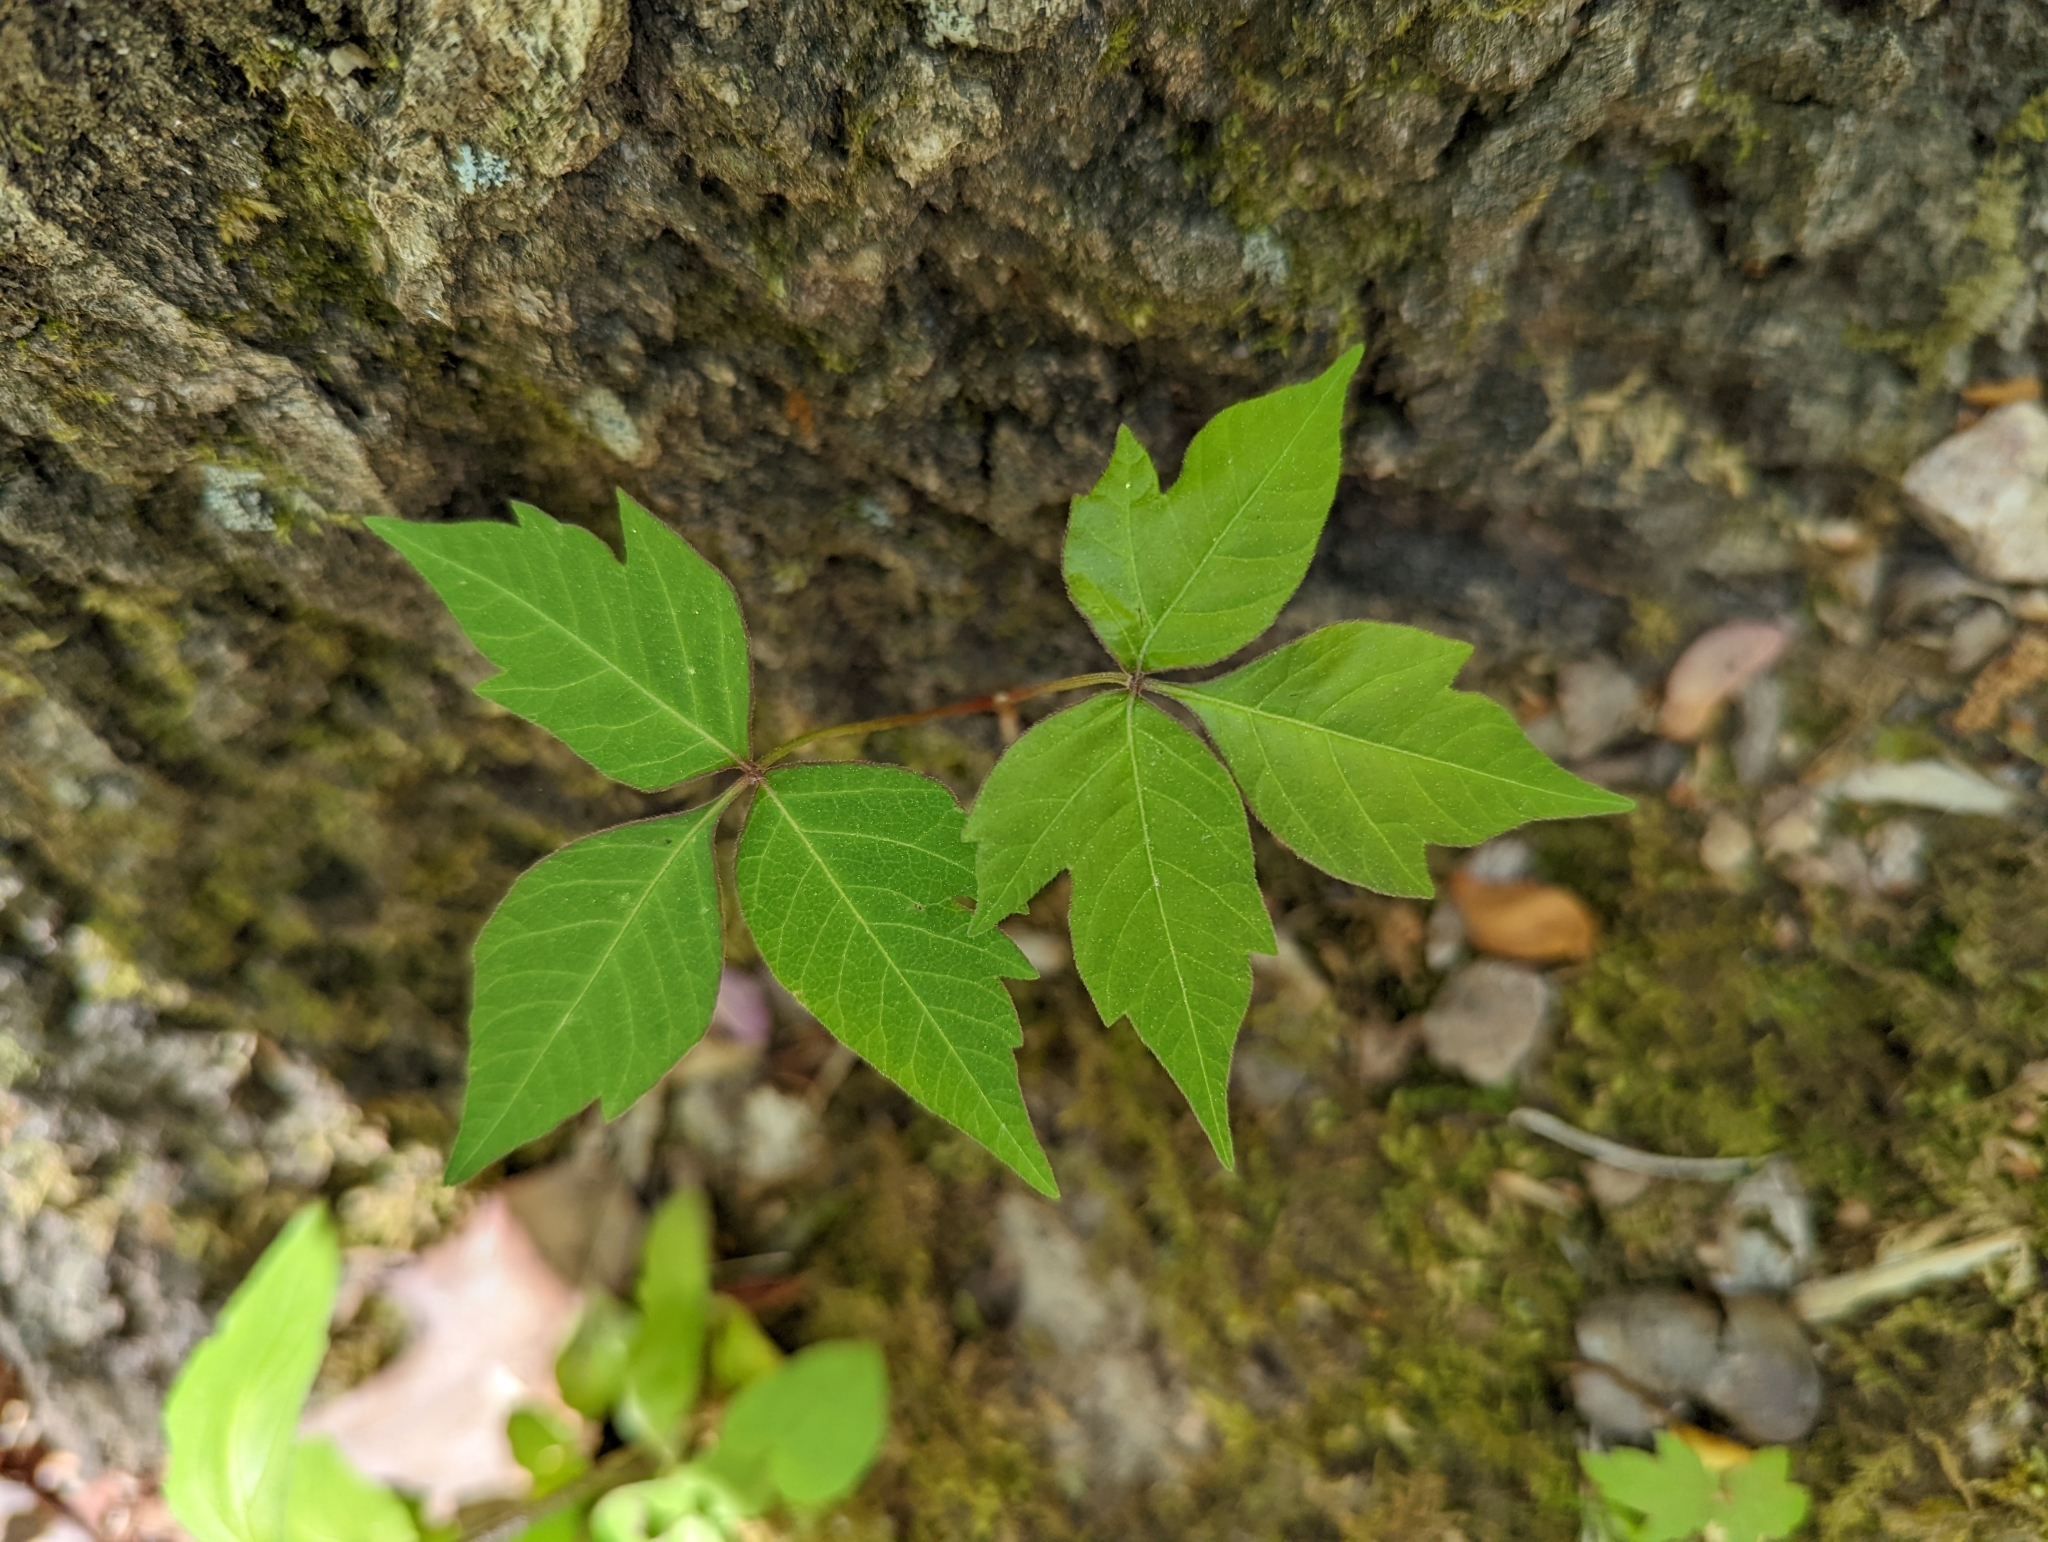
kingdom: Plantae
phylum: Tracheophyta
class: Magnoliopsida
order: Sapindales
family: Anacardiaceae
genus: Toxicodendron
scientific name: Toxicodendron radicans
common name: Poison ivy
